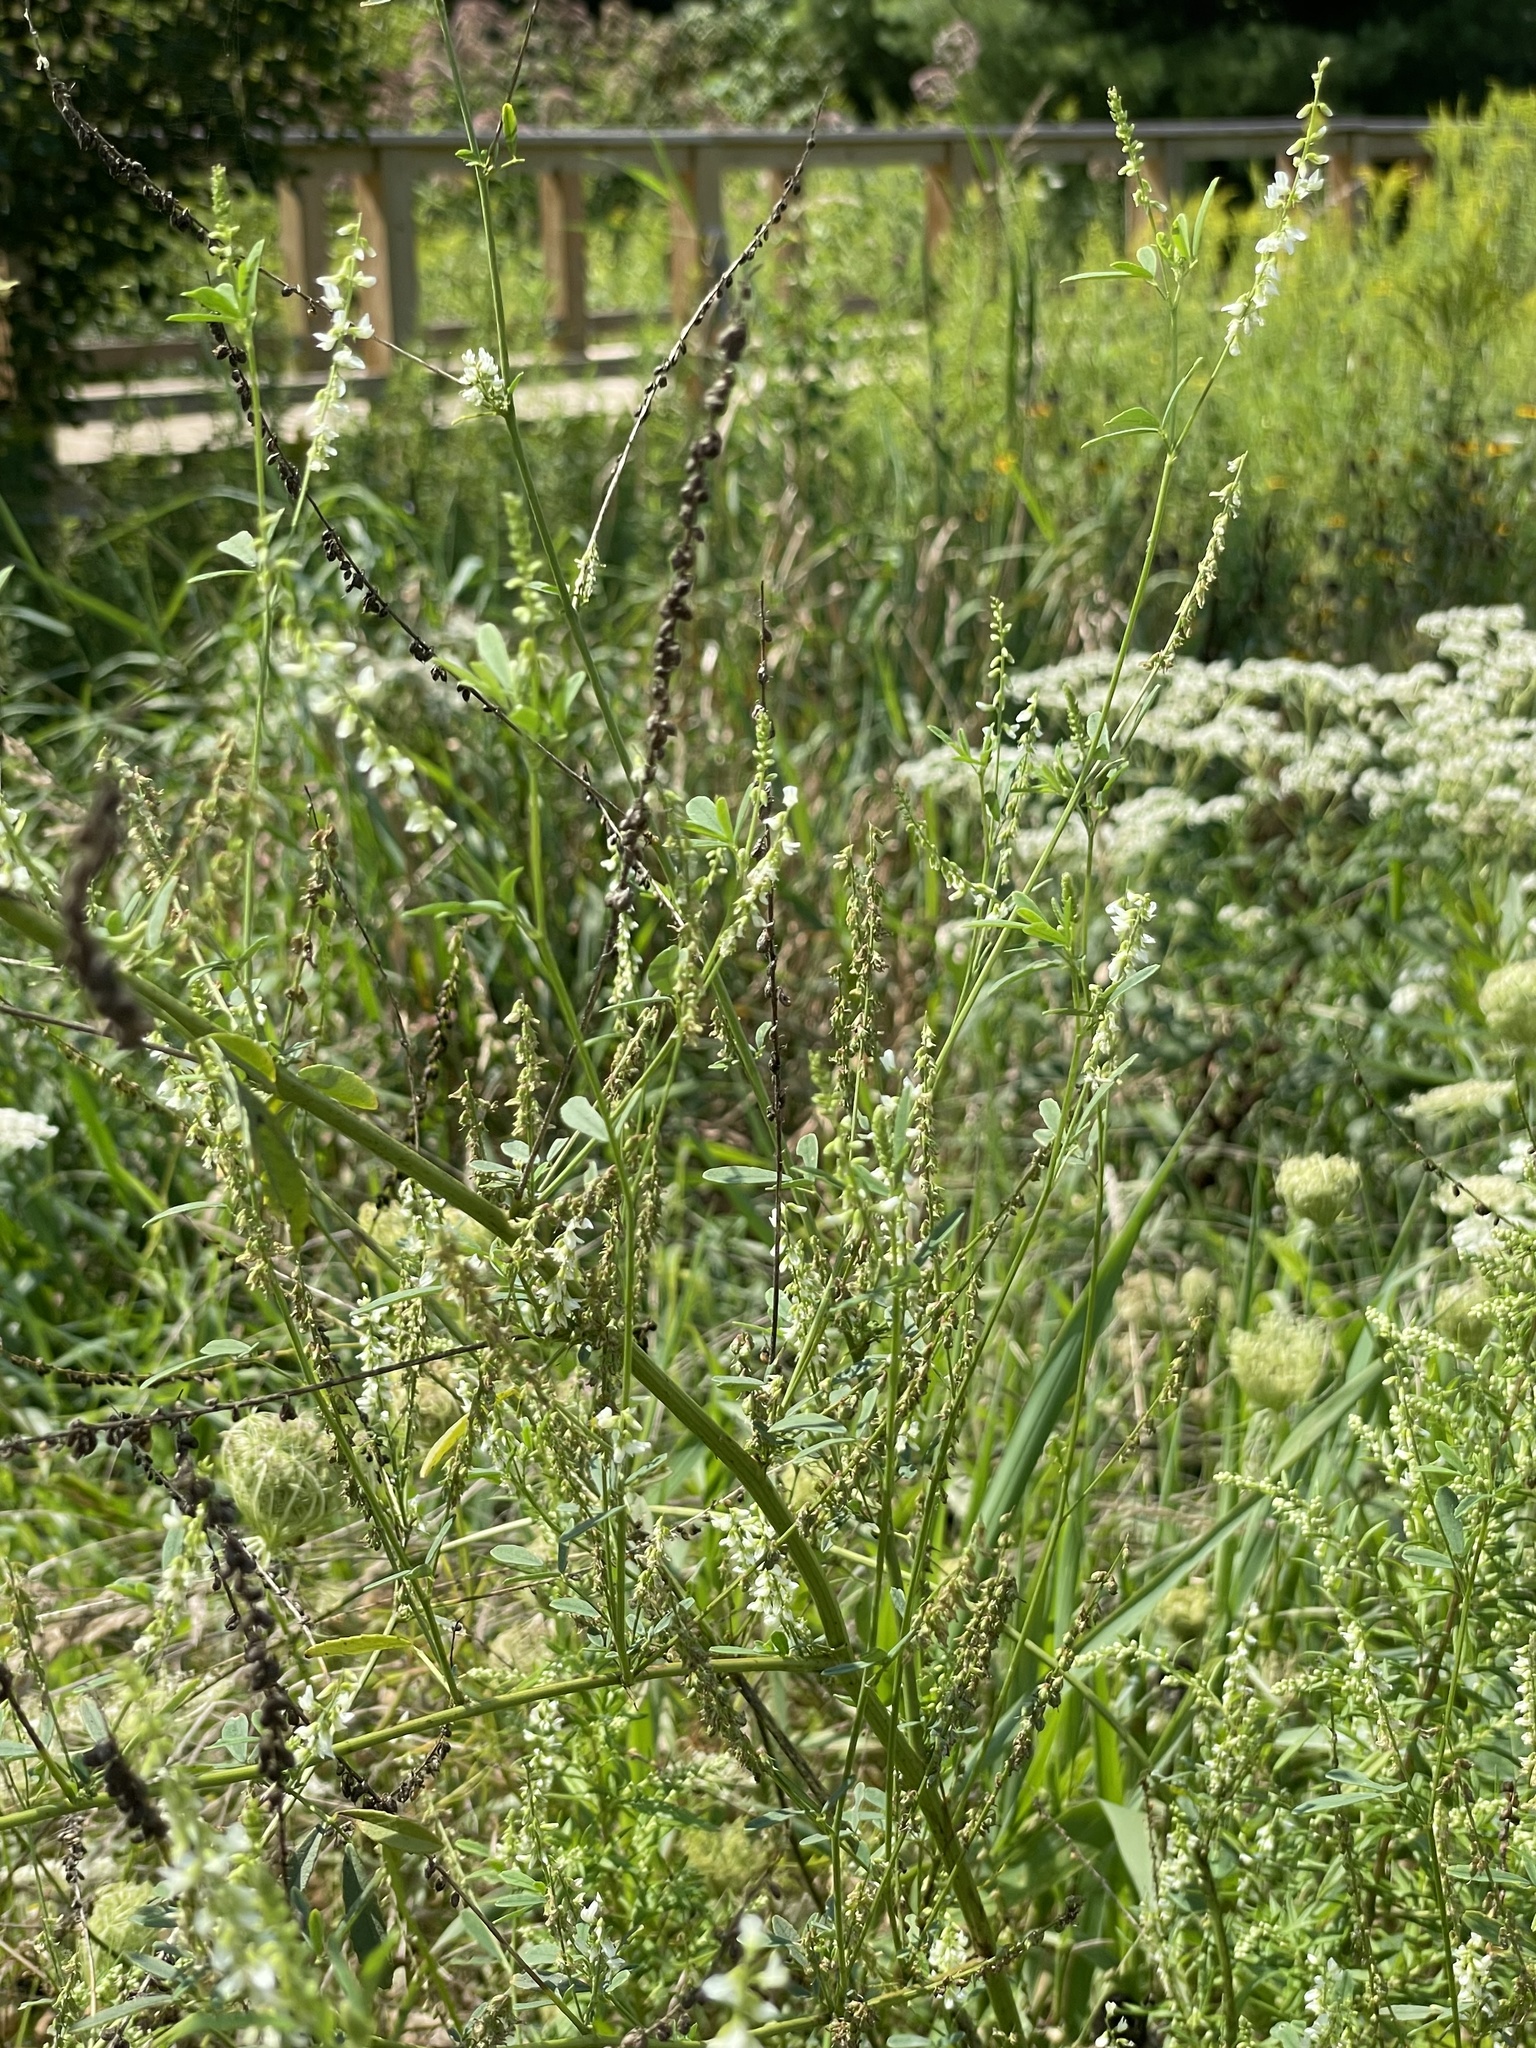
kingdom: Plantae
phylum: Tracheophyta
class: Magnoliopsida
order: Fabales
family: Fabaceae
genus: Melilotus
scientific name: Melilotus albus
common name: White melilot
